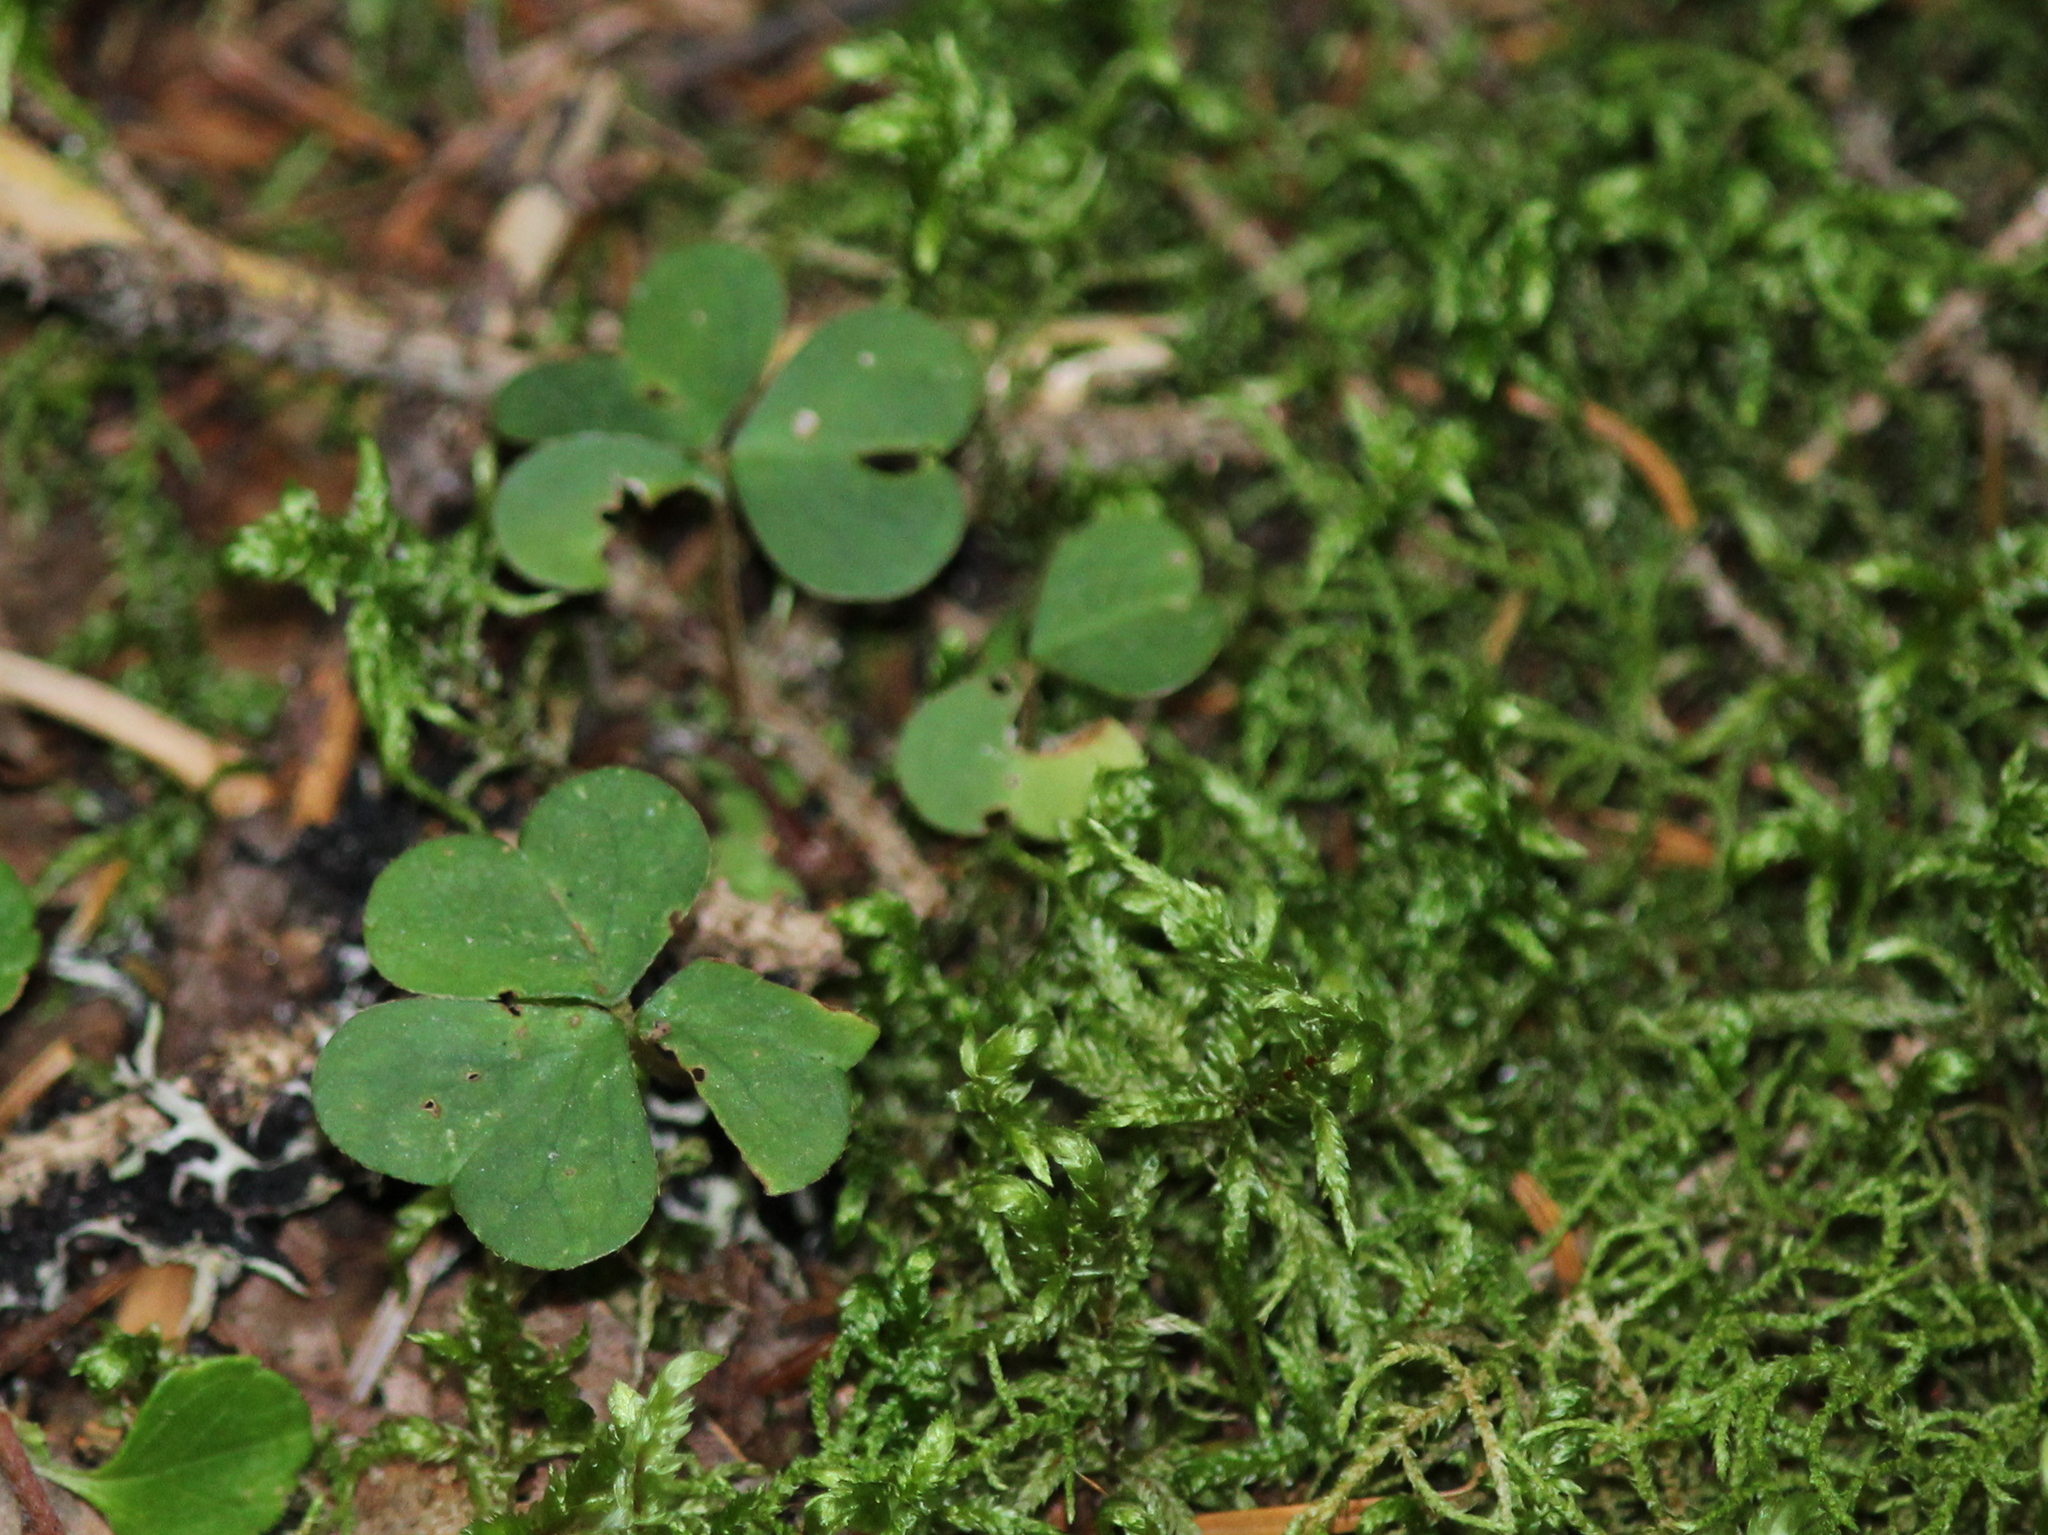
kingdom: Plantae
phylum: Tracheophyta
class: Magnoliopsida
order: Oxalidales
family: Oxalidaceae
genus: Oxalis
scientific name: Oxalis montana
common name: American wood-sorrel
